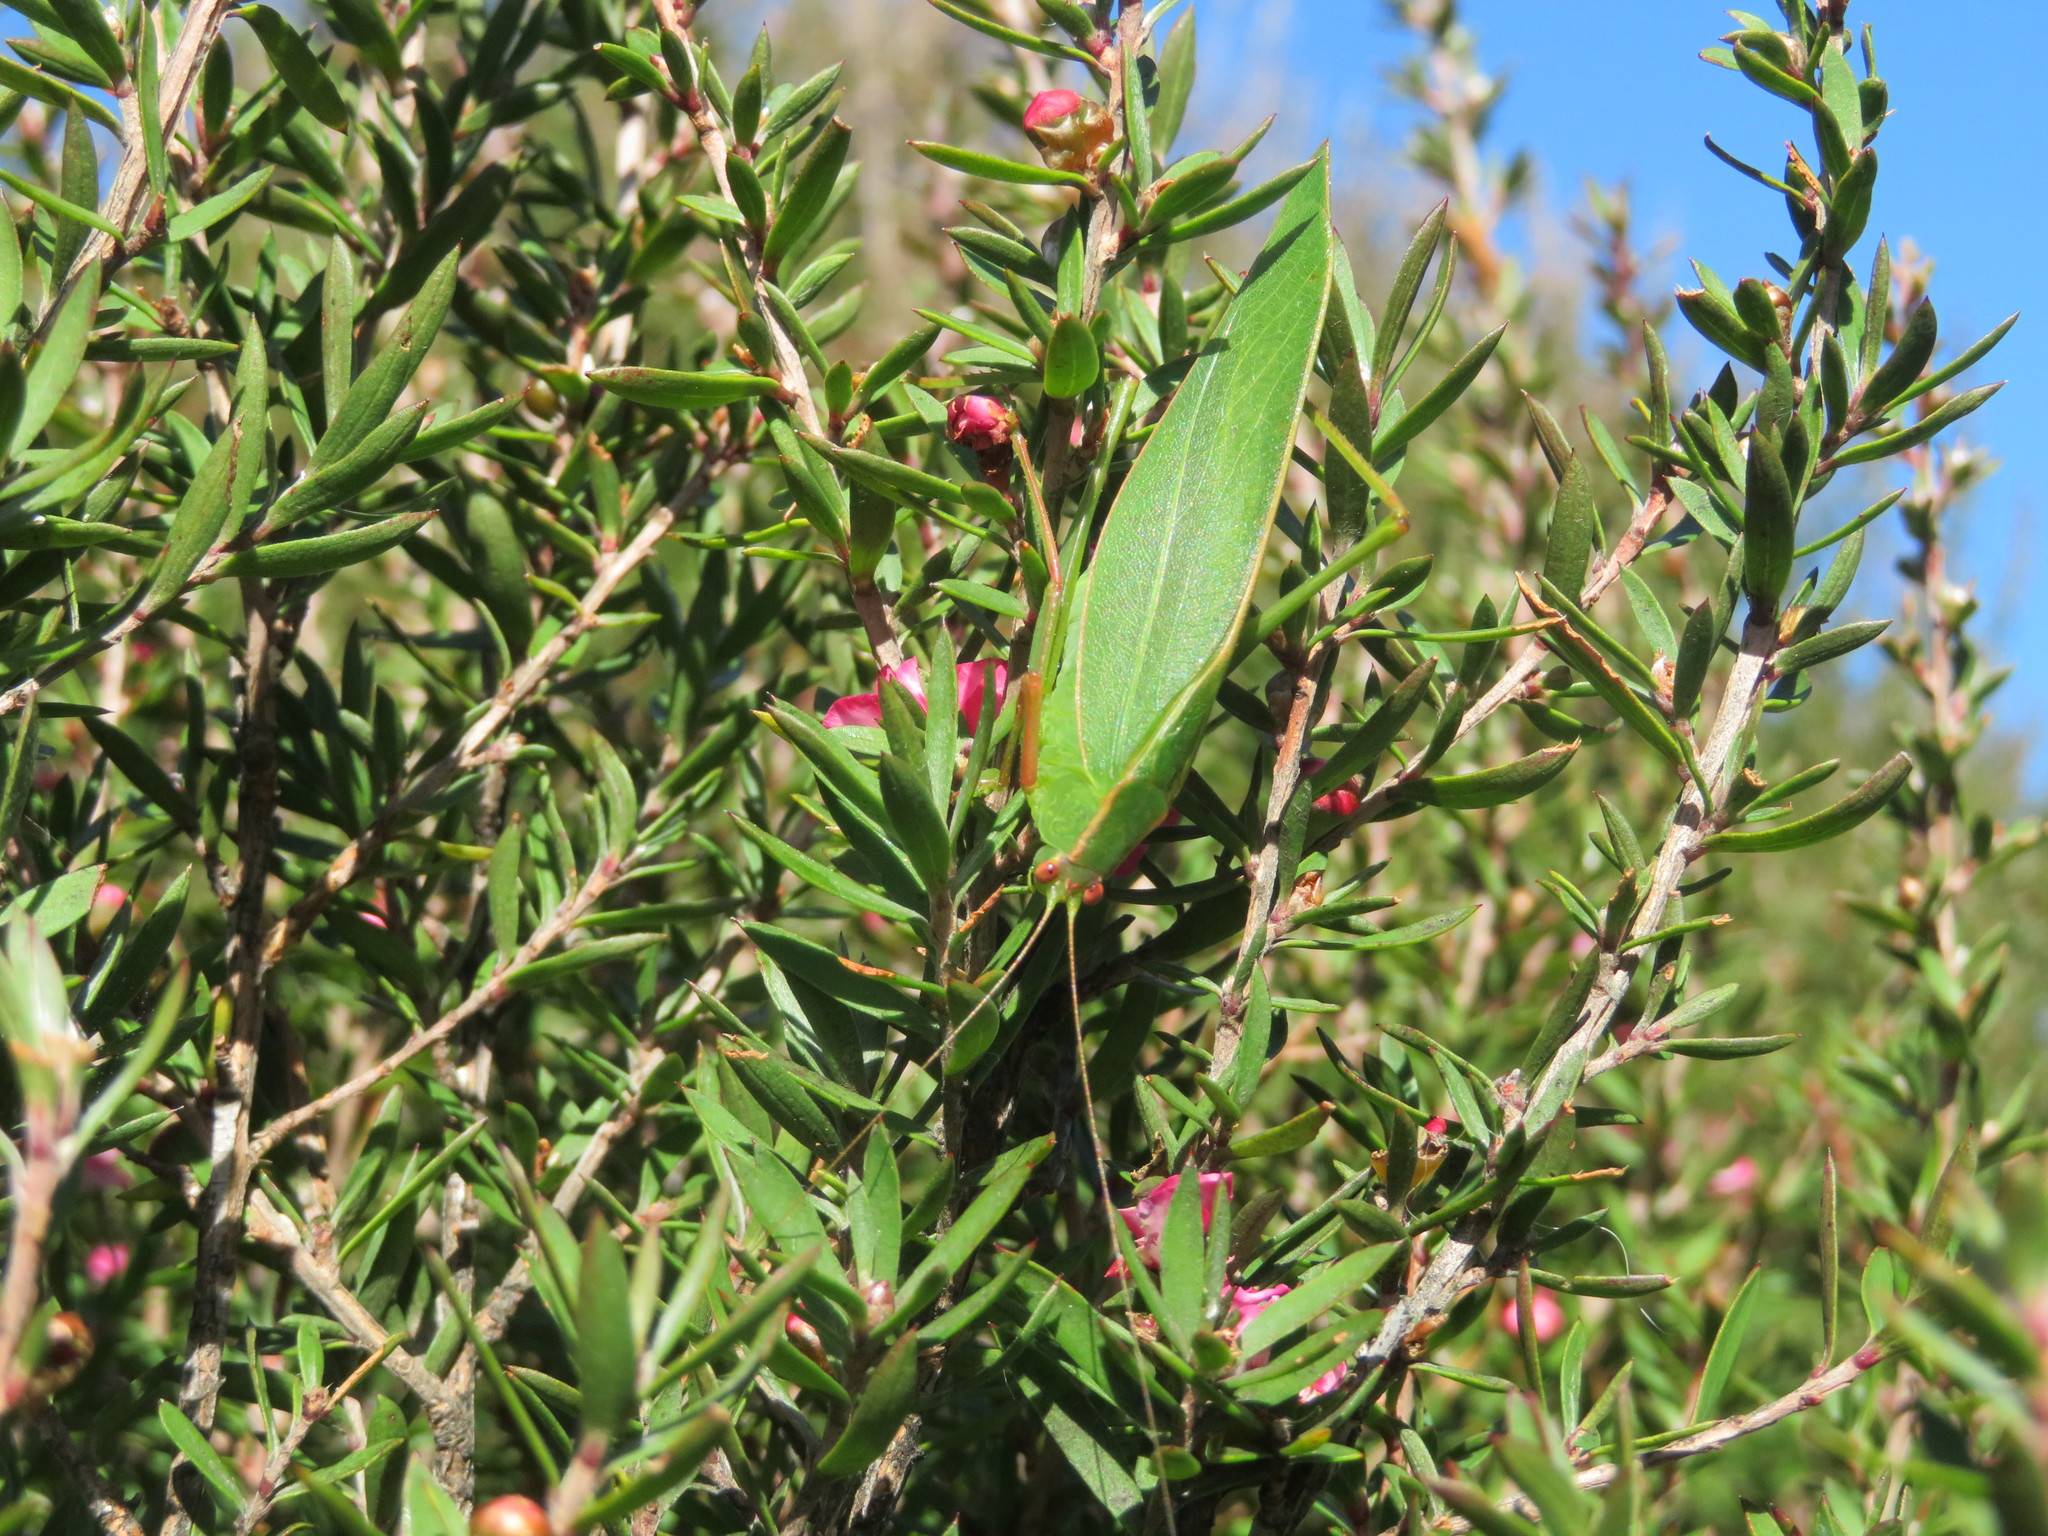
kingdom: Animalia
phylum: Arthropoda
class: Insecta
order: Orthoptera
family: Tettigoniidae
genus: Caedicia
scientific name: Caedicia simplex
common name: Common garden katydid
